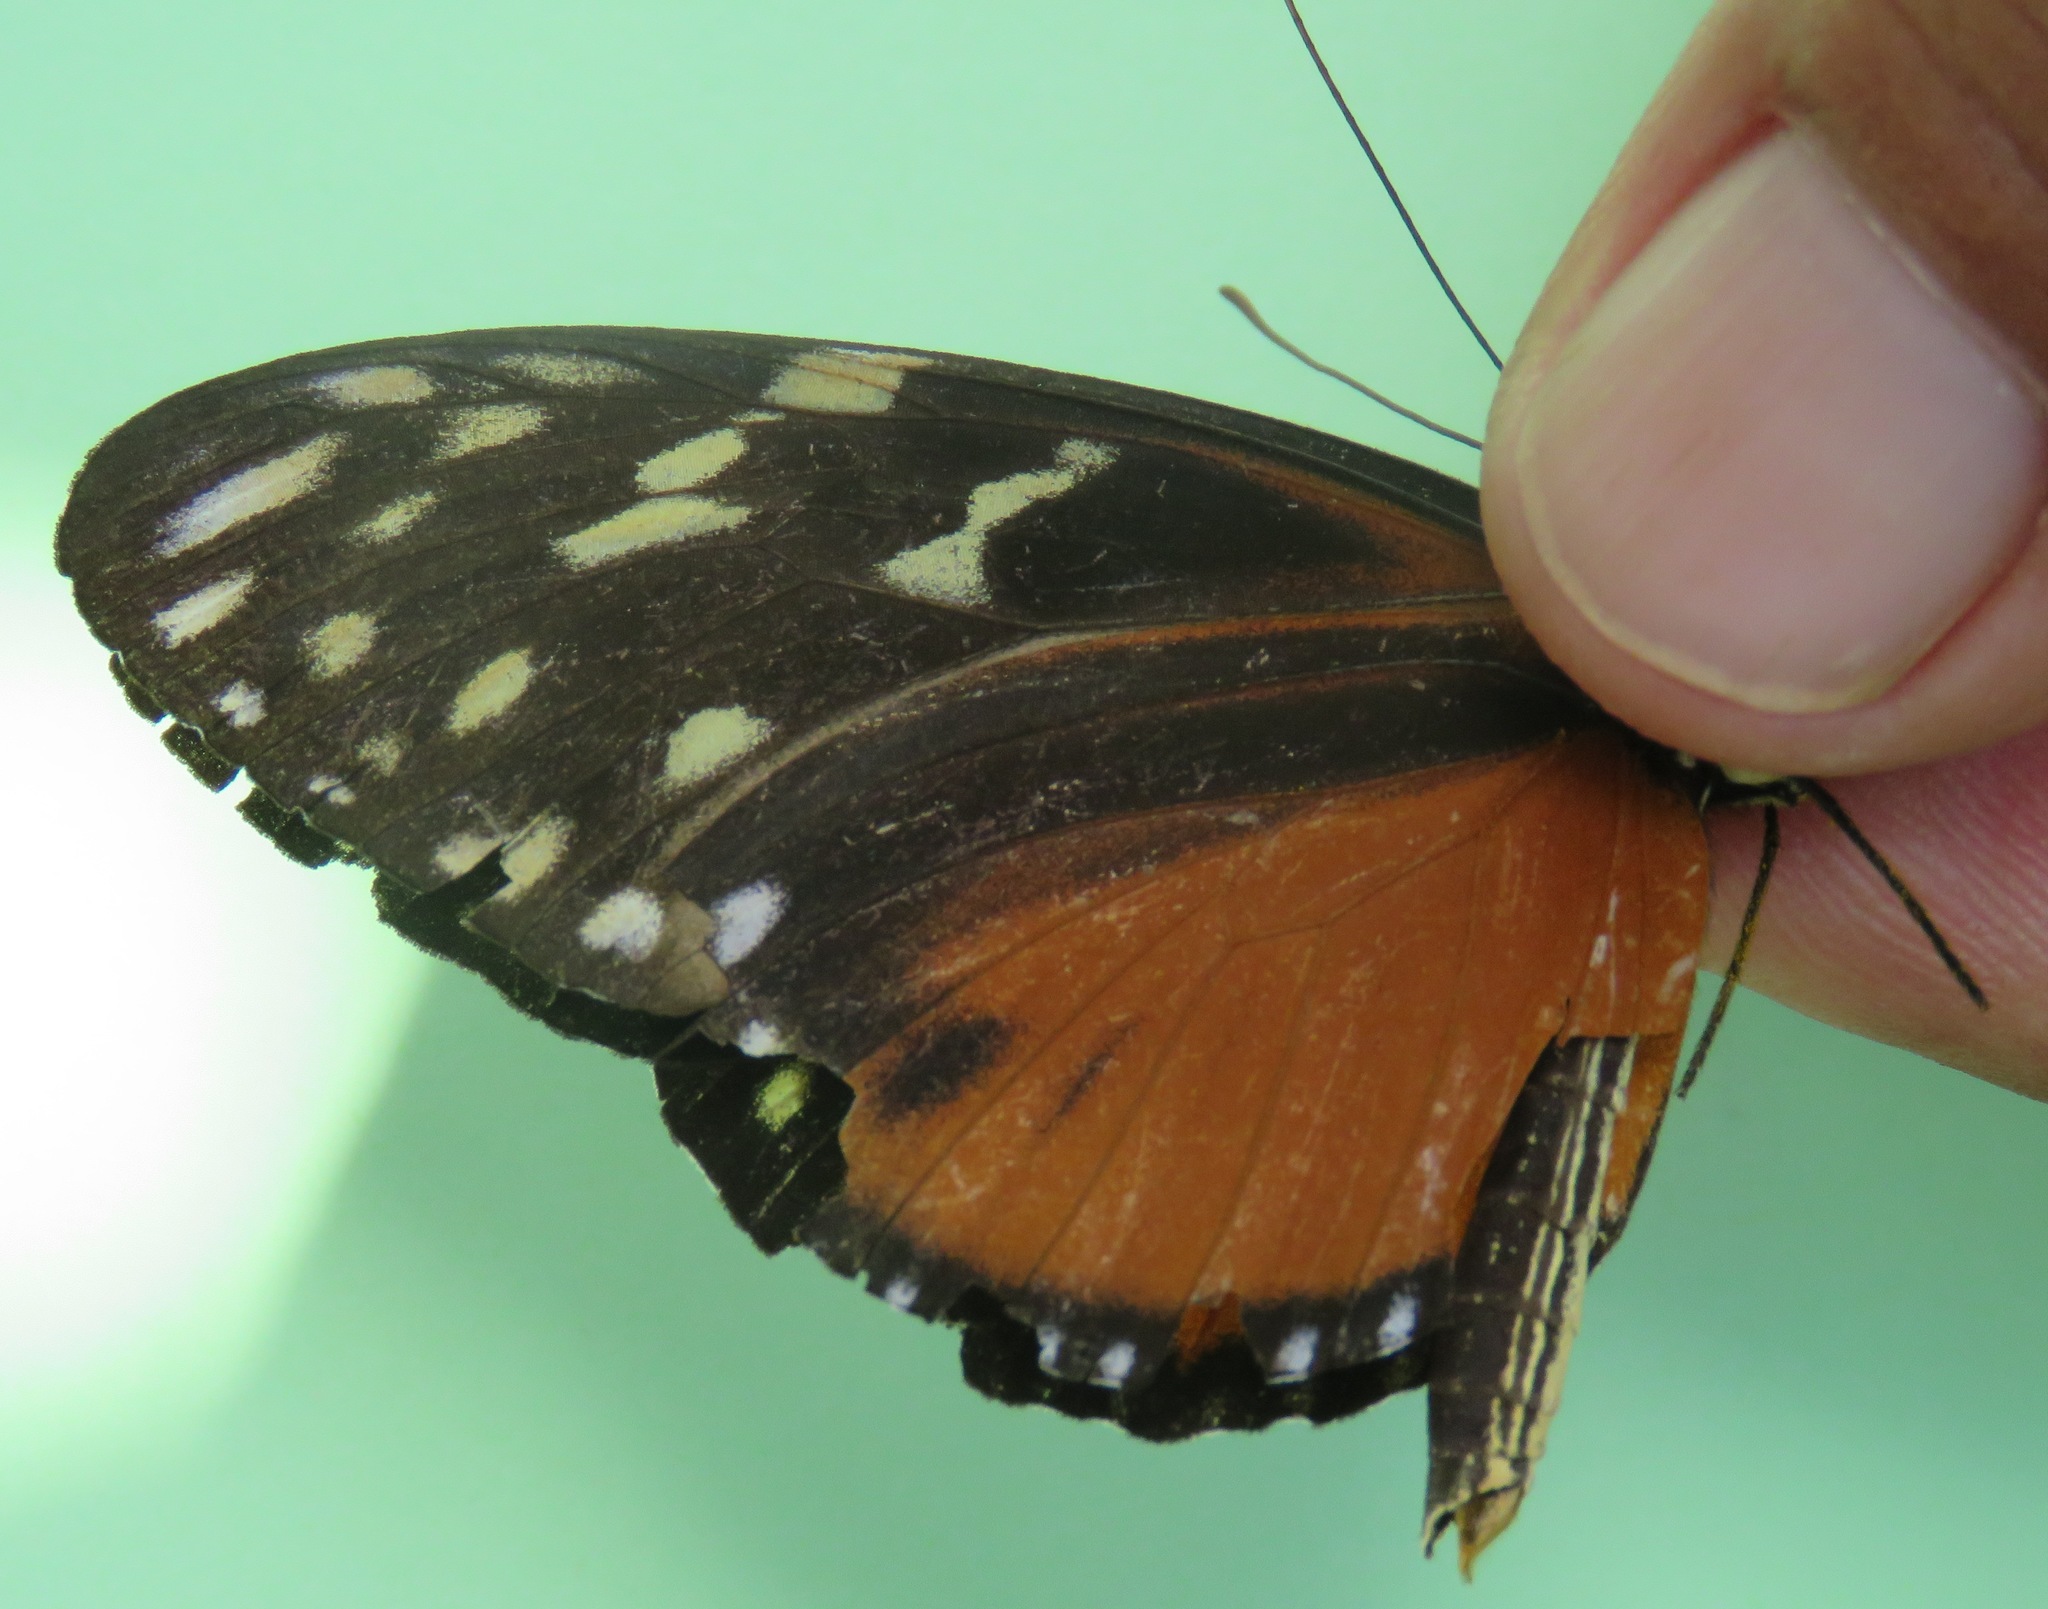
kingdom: Animalia
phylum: Arthropoda
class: Insecta
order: Lepidoptera
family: Nymphalidae
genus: Heliconius
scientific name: Heliconius hecale
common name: Tiger longwing
